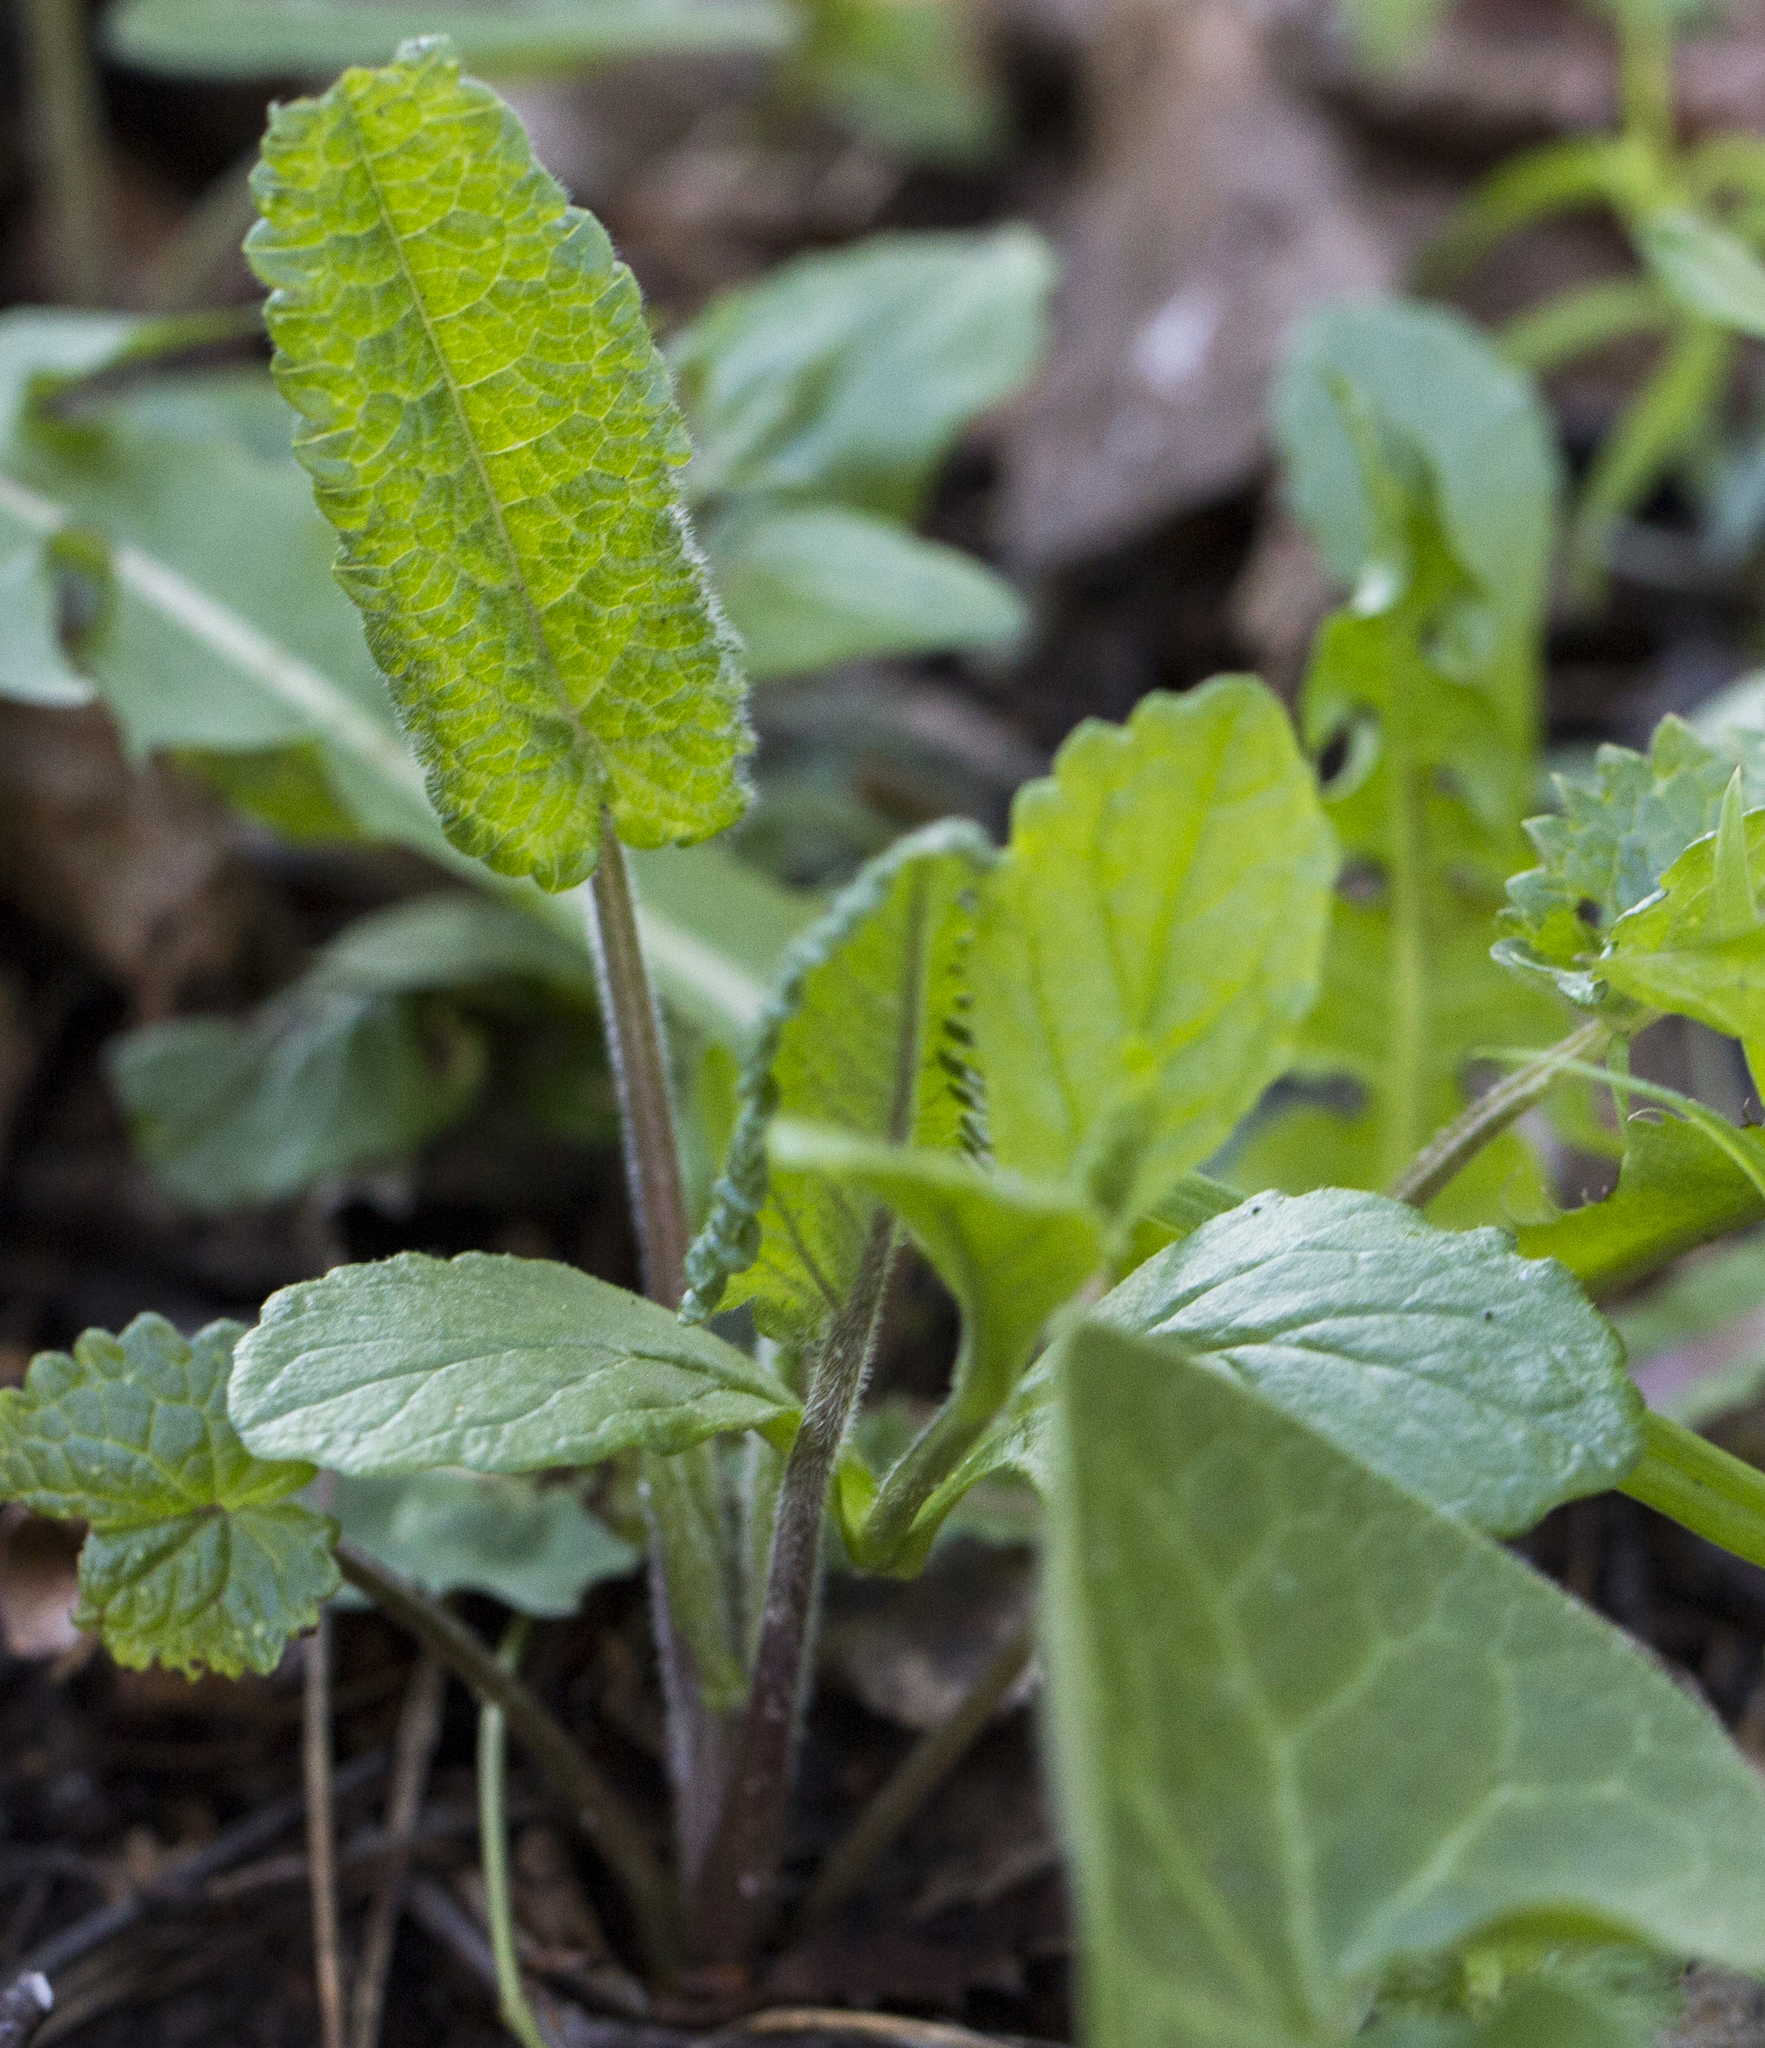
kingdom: Plantae
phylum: Tracheophyta
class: Magnoliopsida
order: Lamiales
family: Lamiaceae
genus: Betonica
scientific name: Betonica officinalis
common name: Bishop's-wort
